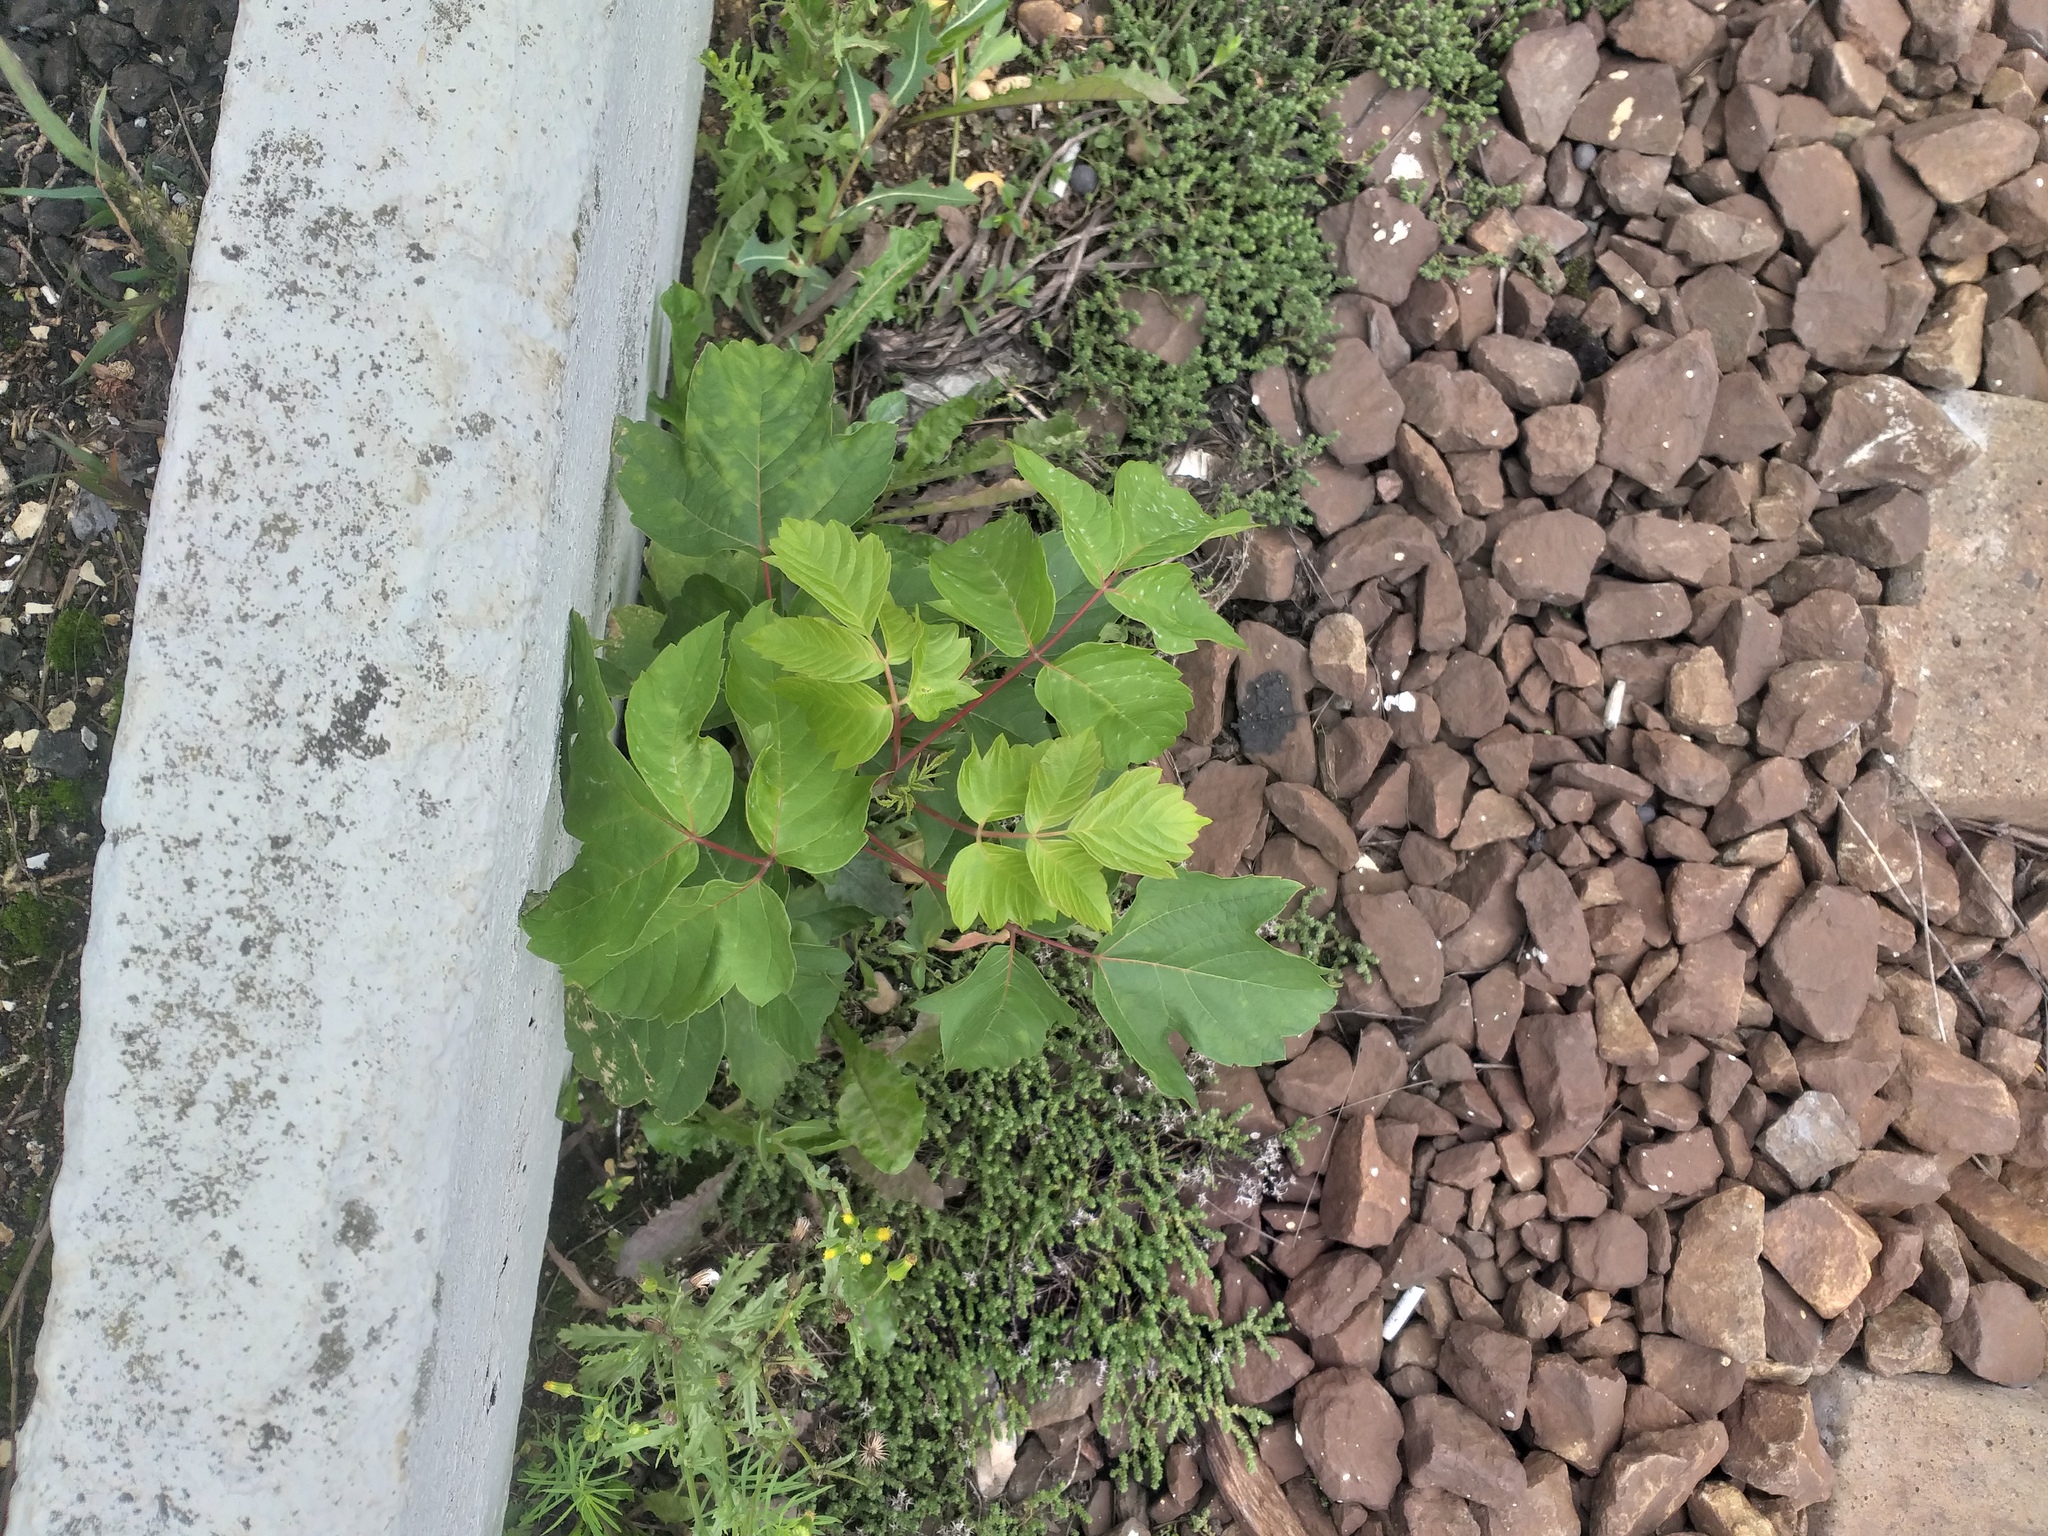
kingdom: Plantae
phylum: Tracheophyta
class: Magnoliopsida
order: Sapindales
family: Sapindaceae
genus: Acer
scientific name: Acer negundo
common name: Ashleaf maple
